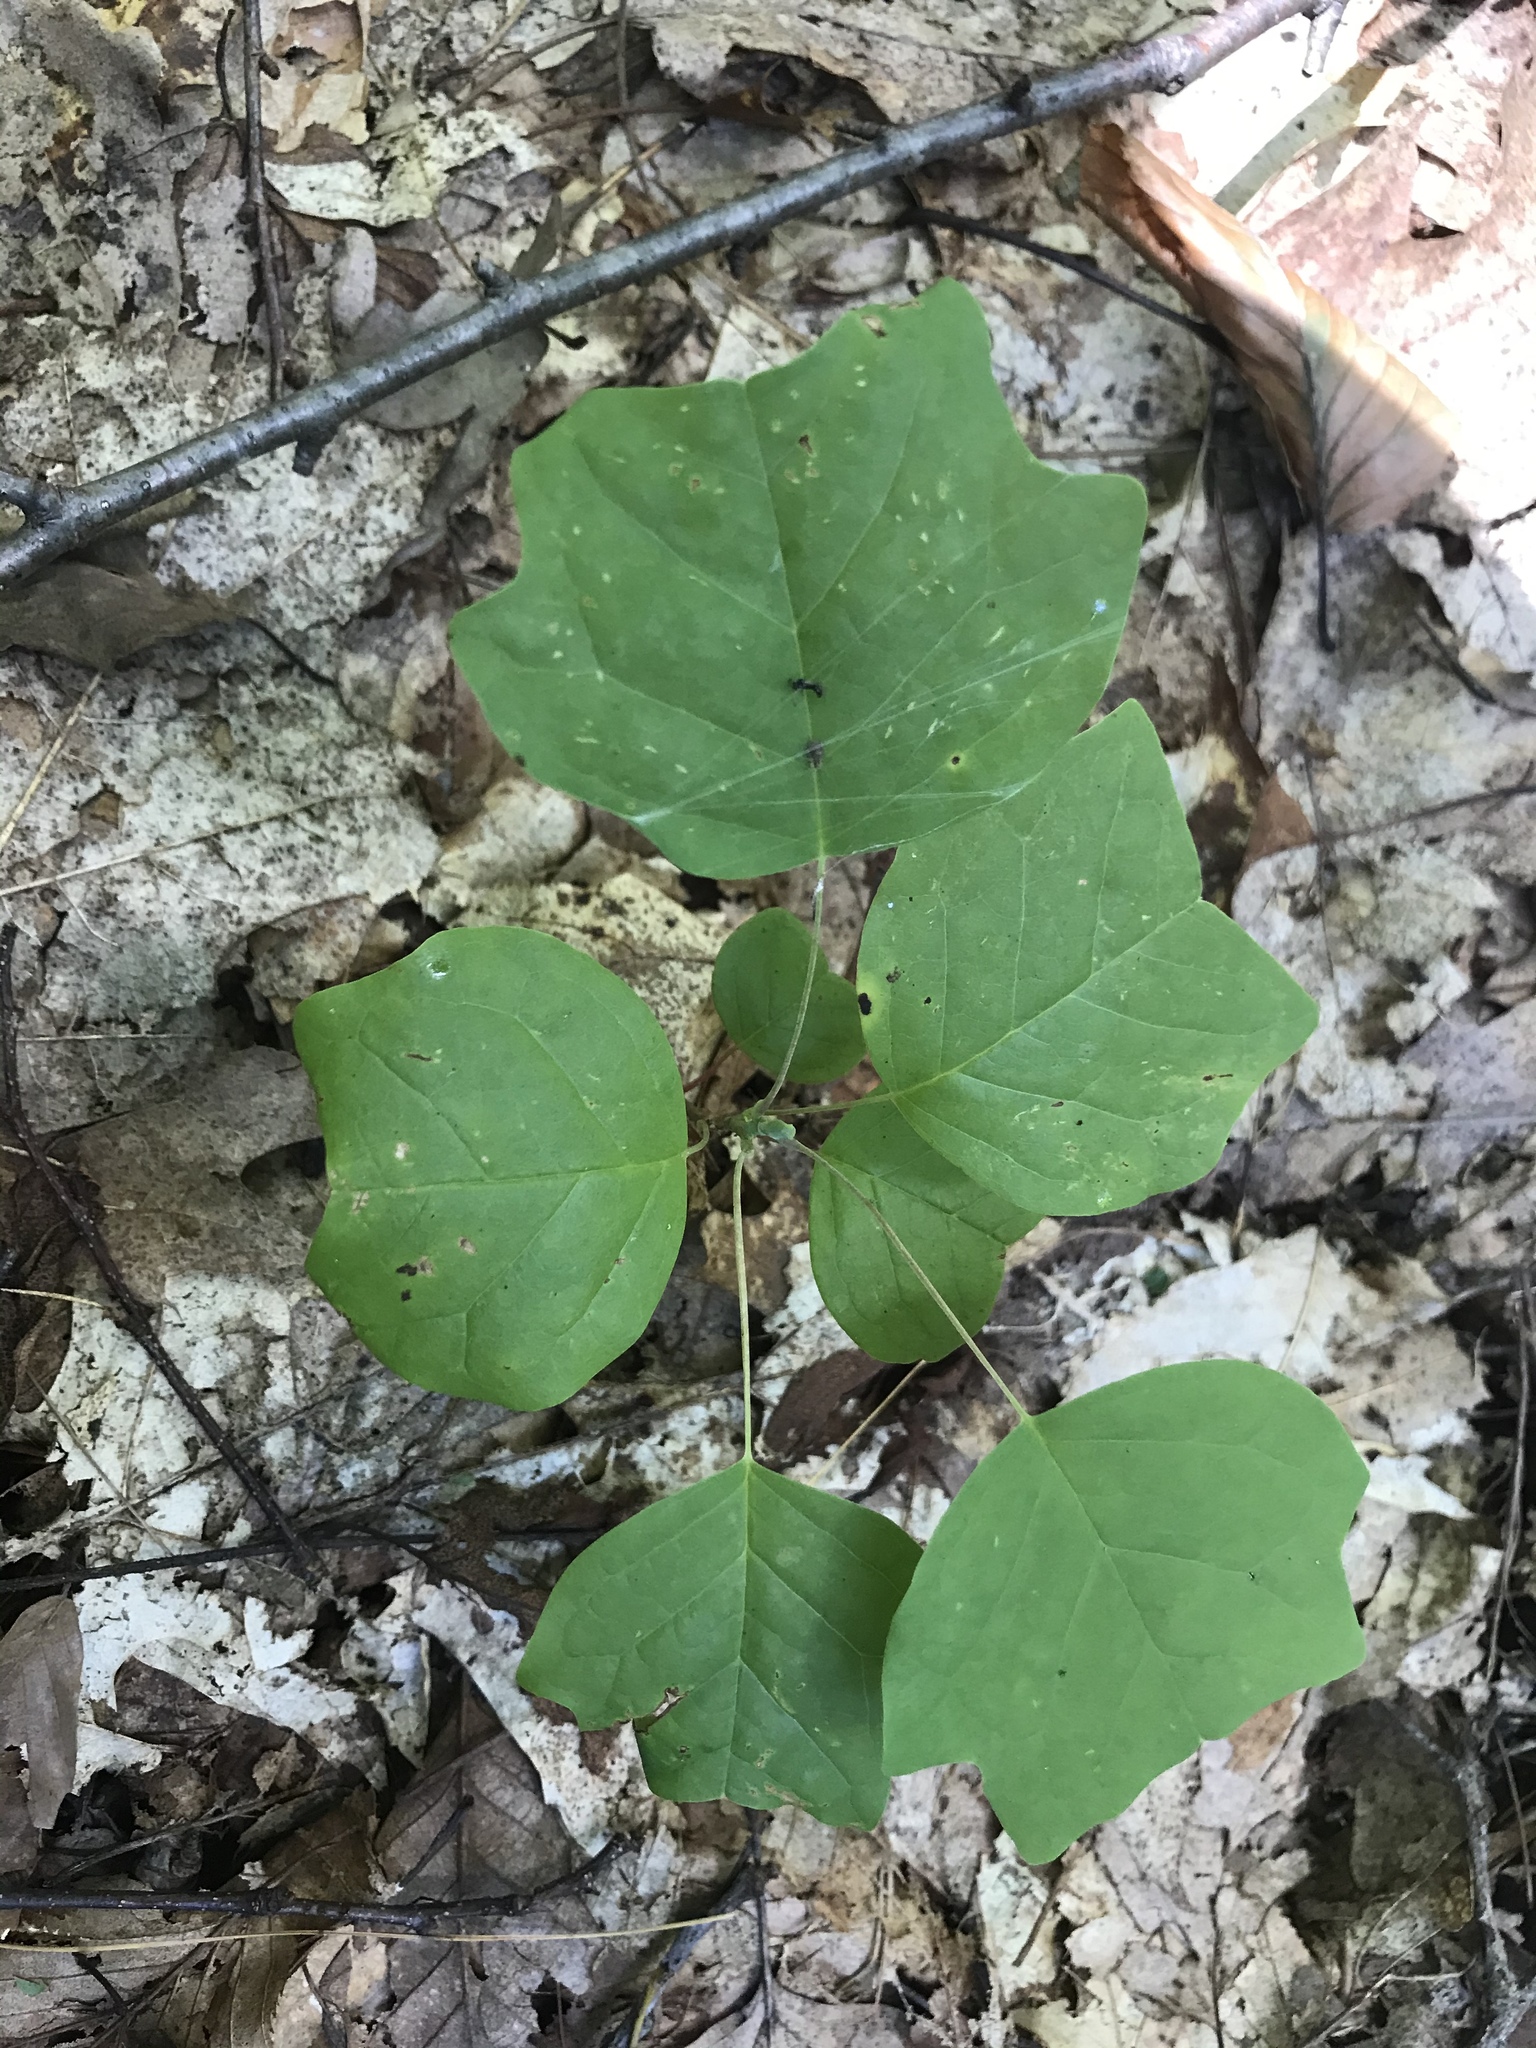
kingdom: Plantae
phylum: Tracheophyta
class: Magnoliopsida
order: Magnoliales
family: Magnoliaceae
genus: Liriodendron
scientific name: Liriodendron tulipifera
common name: Tulip tree
